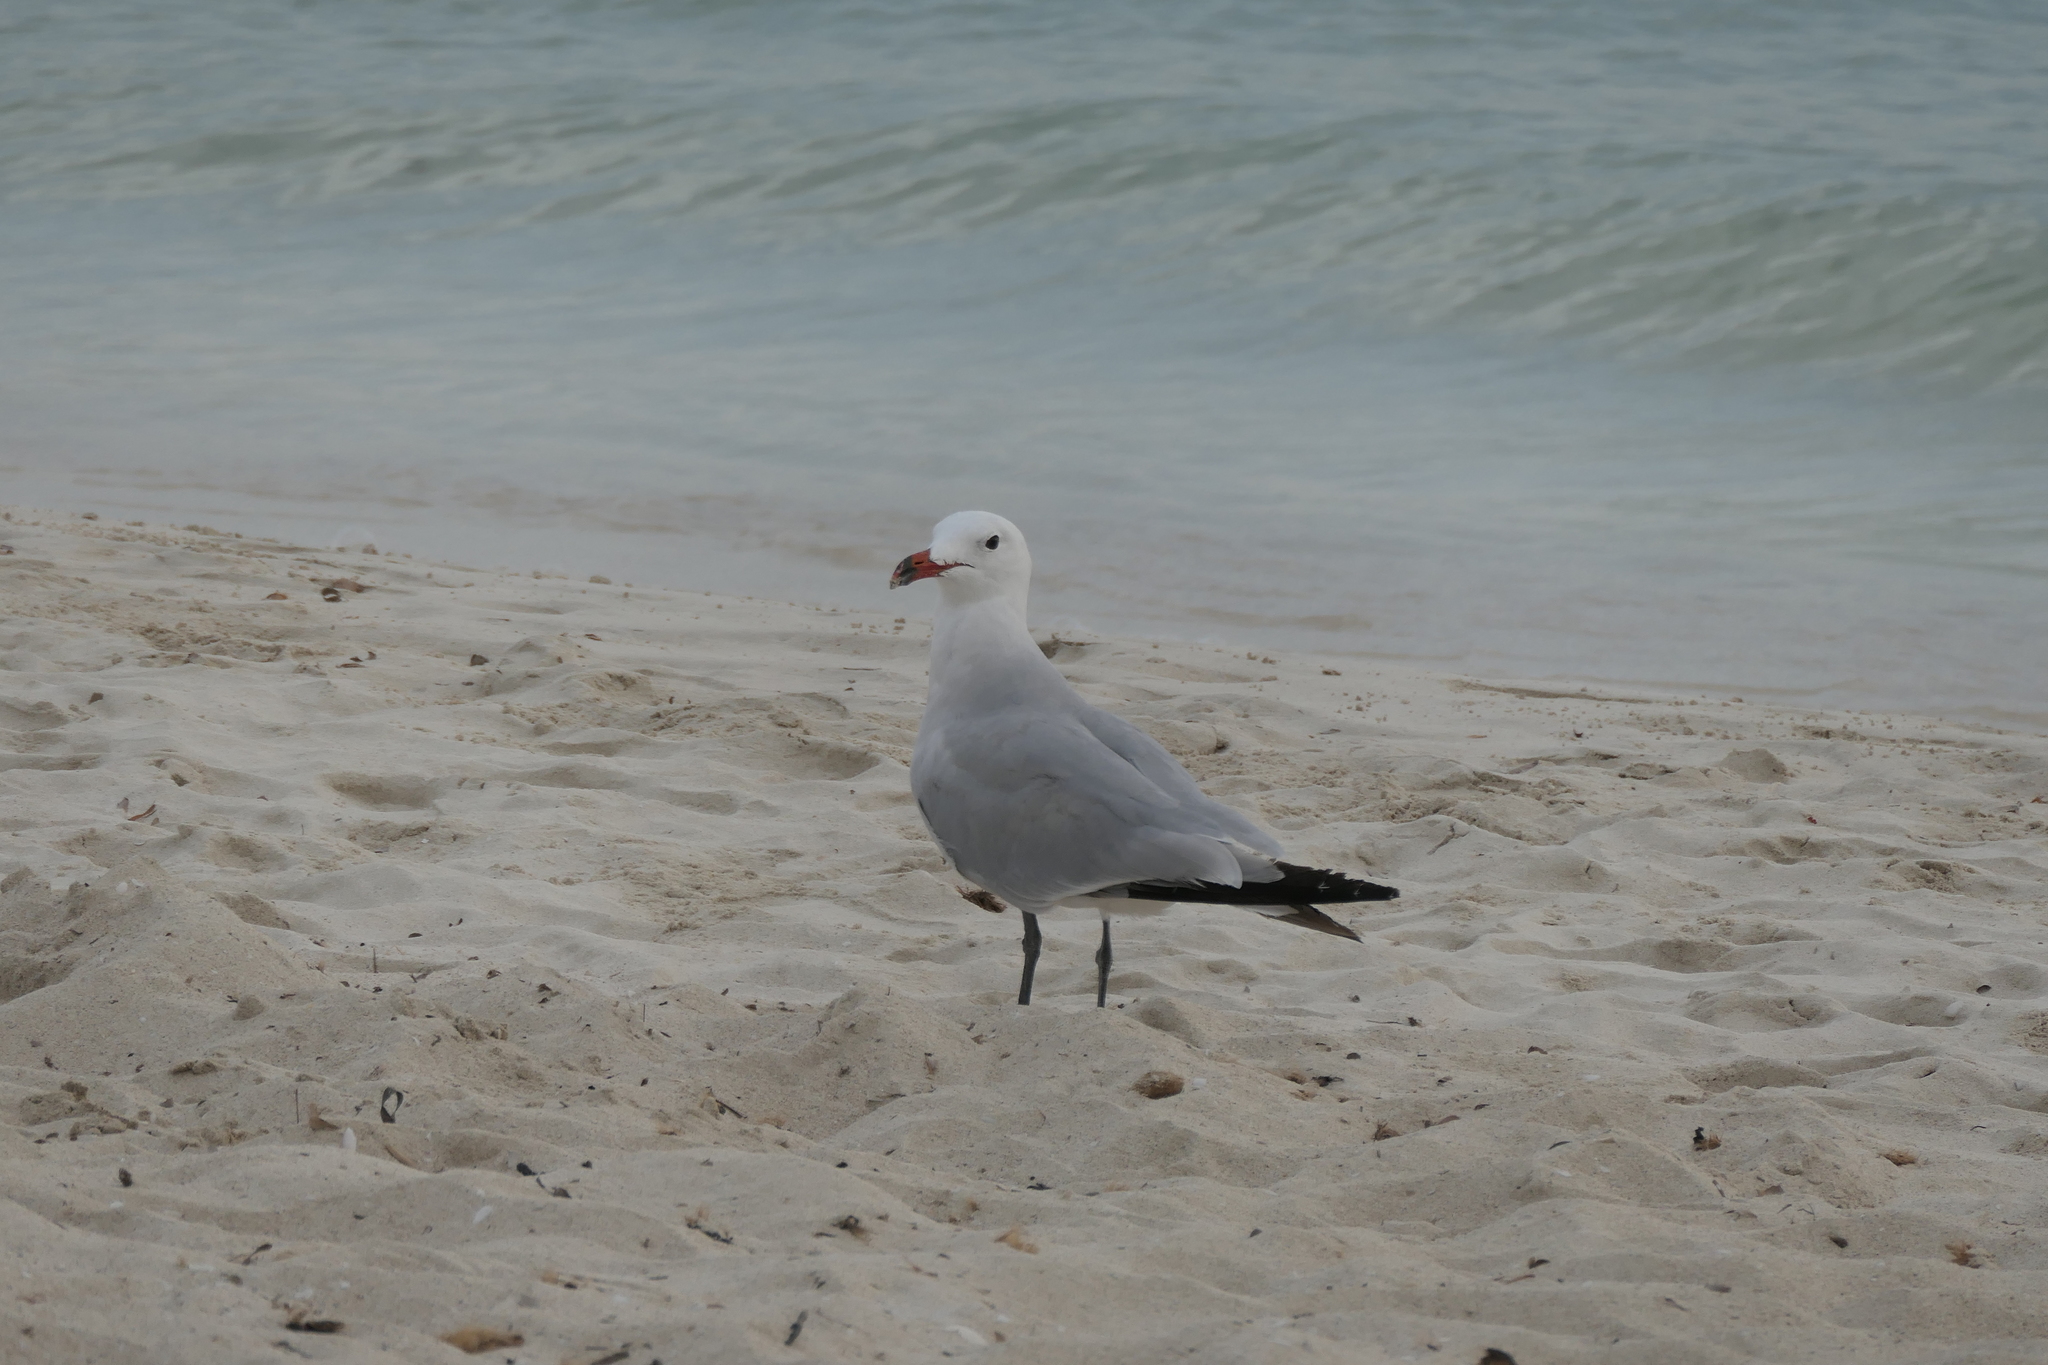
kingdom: Animalia
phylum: Chordata
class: Aves
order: Charadriiformes
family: Laridae
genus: Ichthyaetus
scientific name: Ichthyaetus audouinii
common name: Audouin's gull
